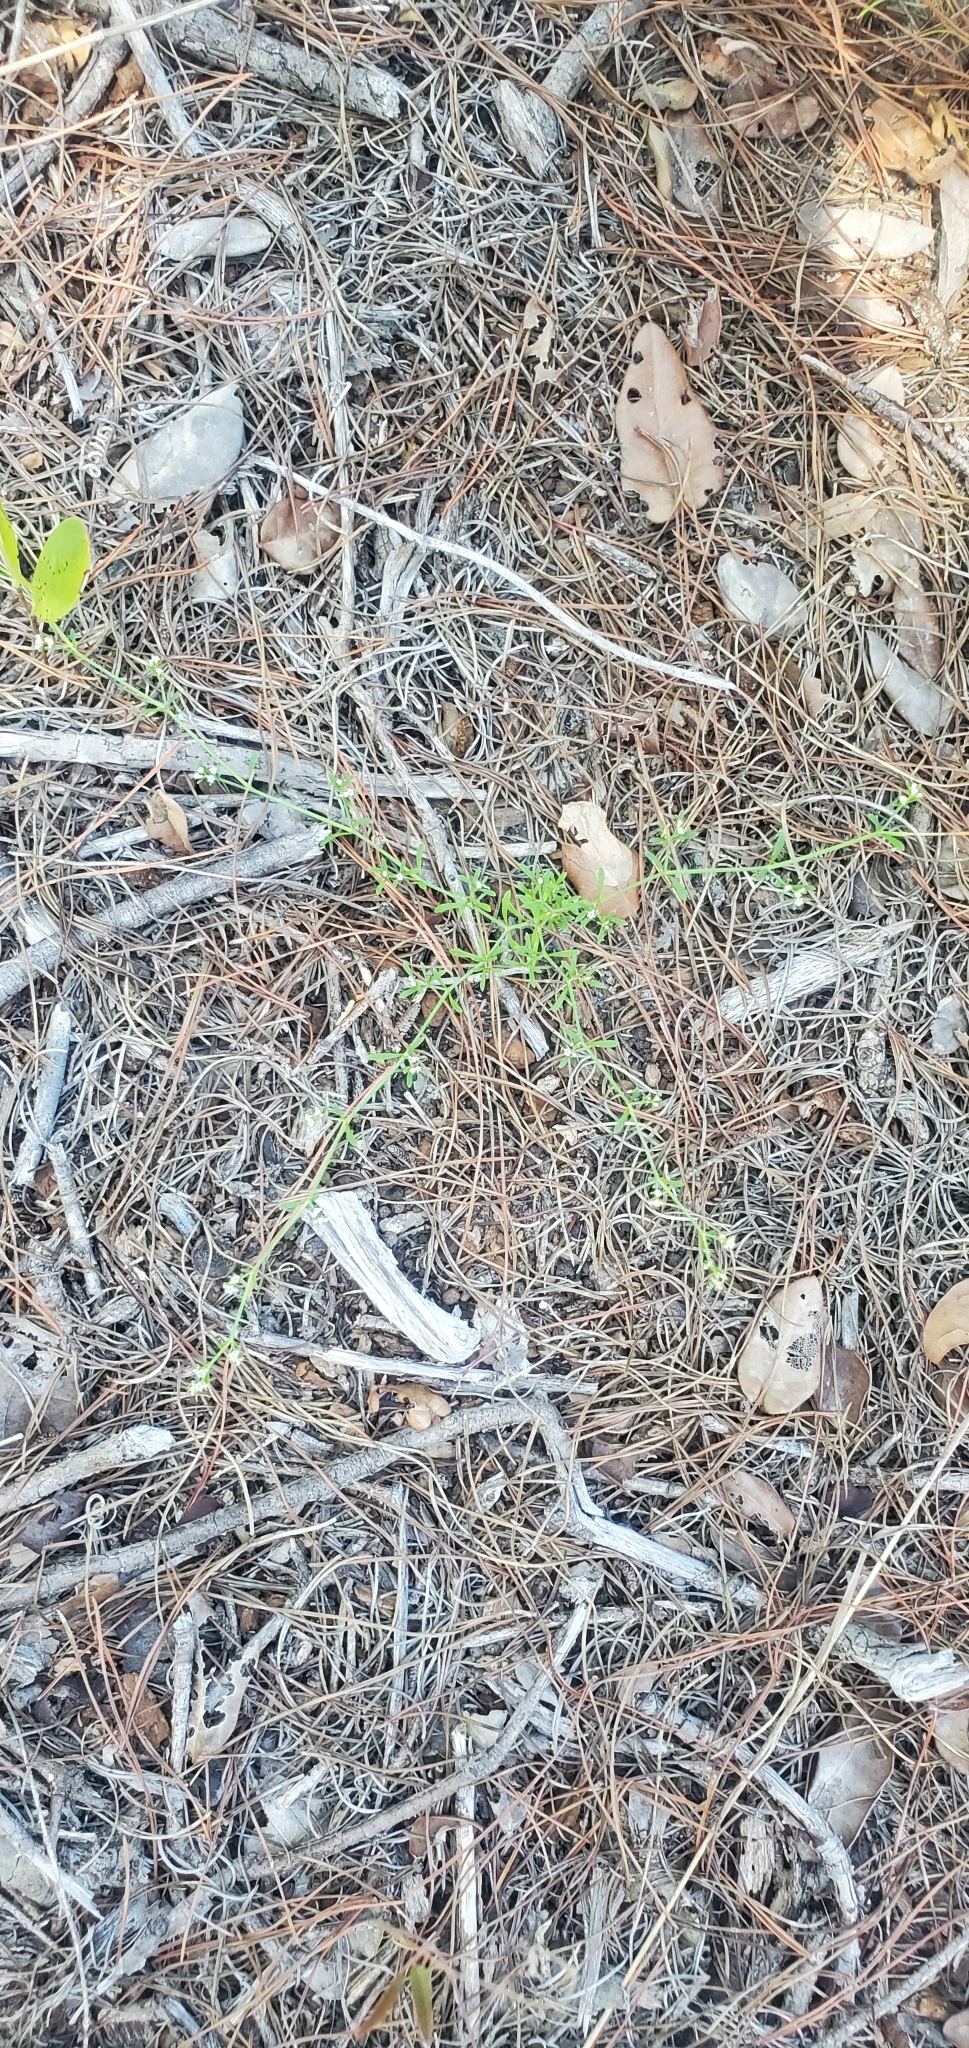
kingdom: Plantae
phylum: Tracheophyta
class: Magnoliopsida
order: Caryophyllales
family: Caryophyllaceae
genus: Paronychia
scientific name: Paronychia americana
